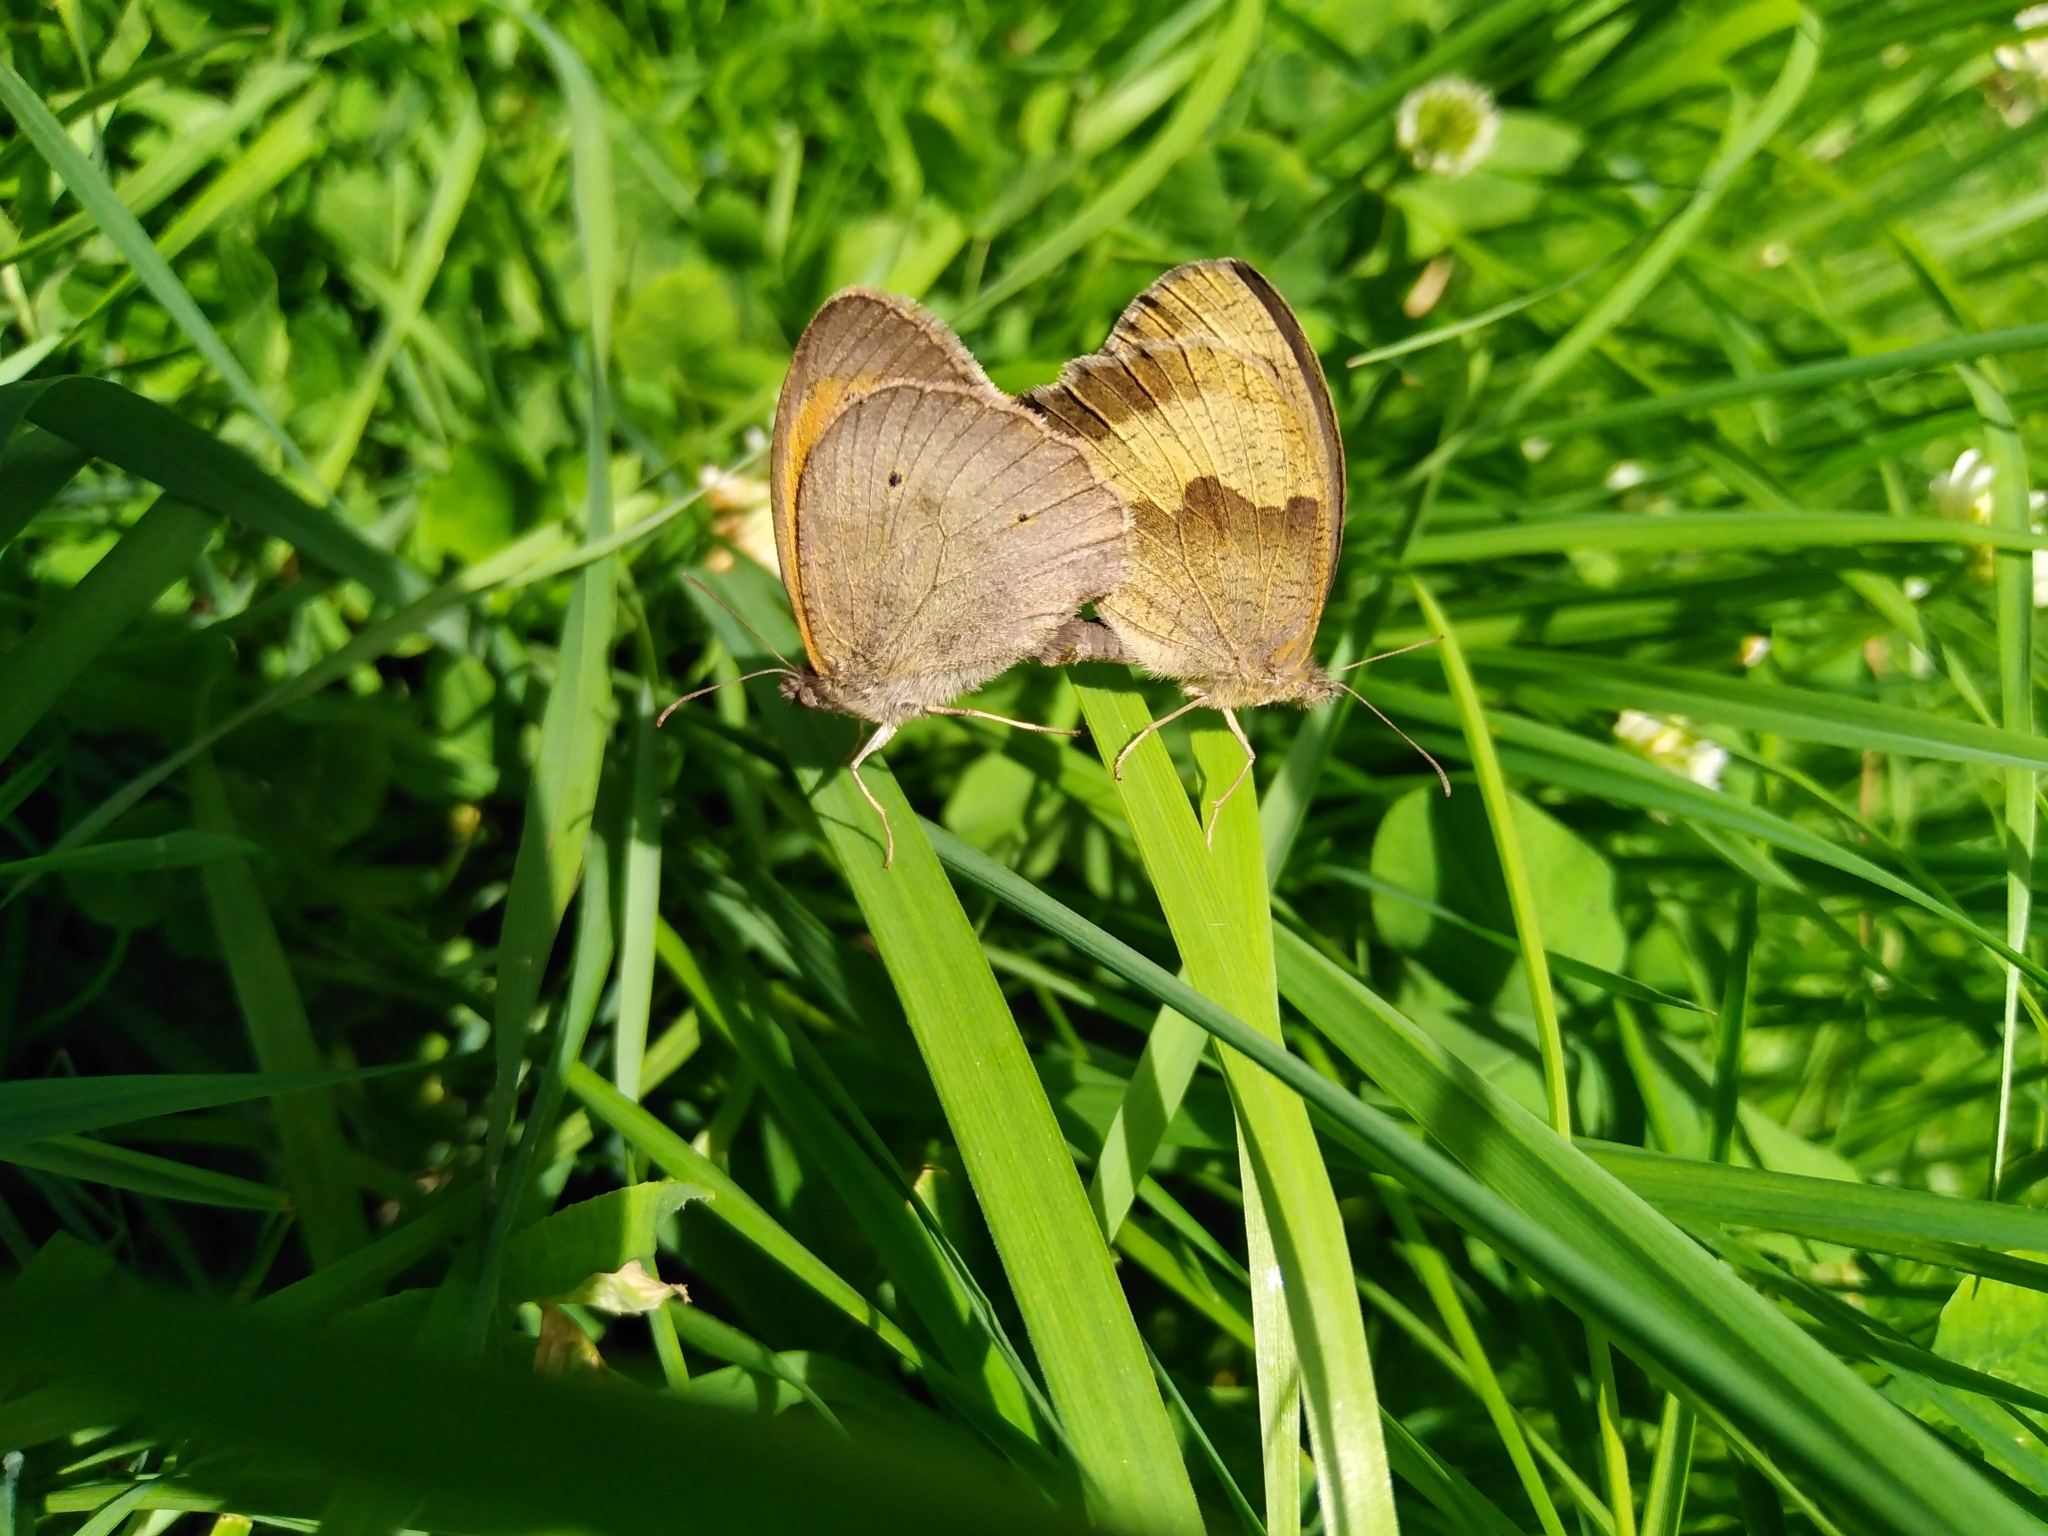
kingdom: Animalia
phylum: Arthropoda
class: Insecta
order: Lepidoptera
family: Nymphalidae
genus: Maniola
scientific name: Maniola jurtina
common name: Meadow brown
